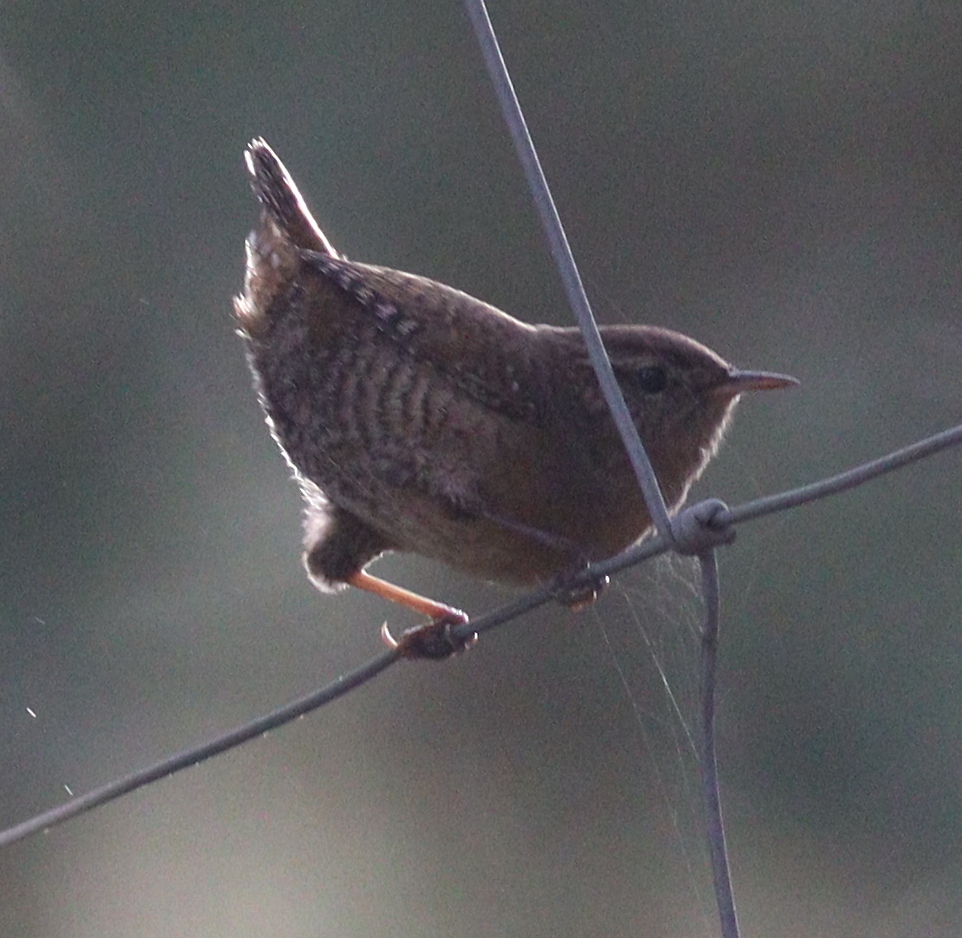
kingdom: Animalia
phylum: Chordata
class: Aves
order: Passeriformes
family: Troglodytidae
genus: Troglodytes
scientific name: Troglodytes troglodytes
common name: Eurasian wren
